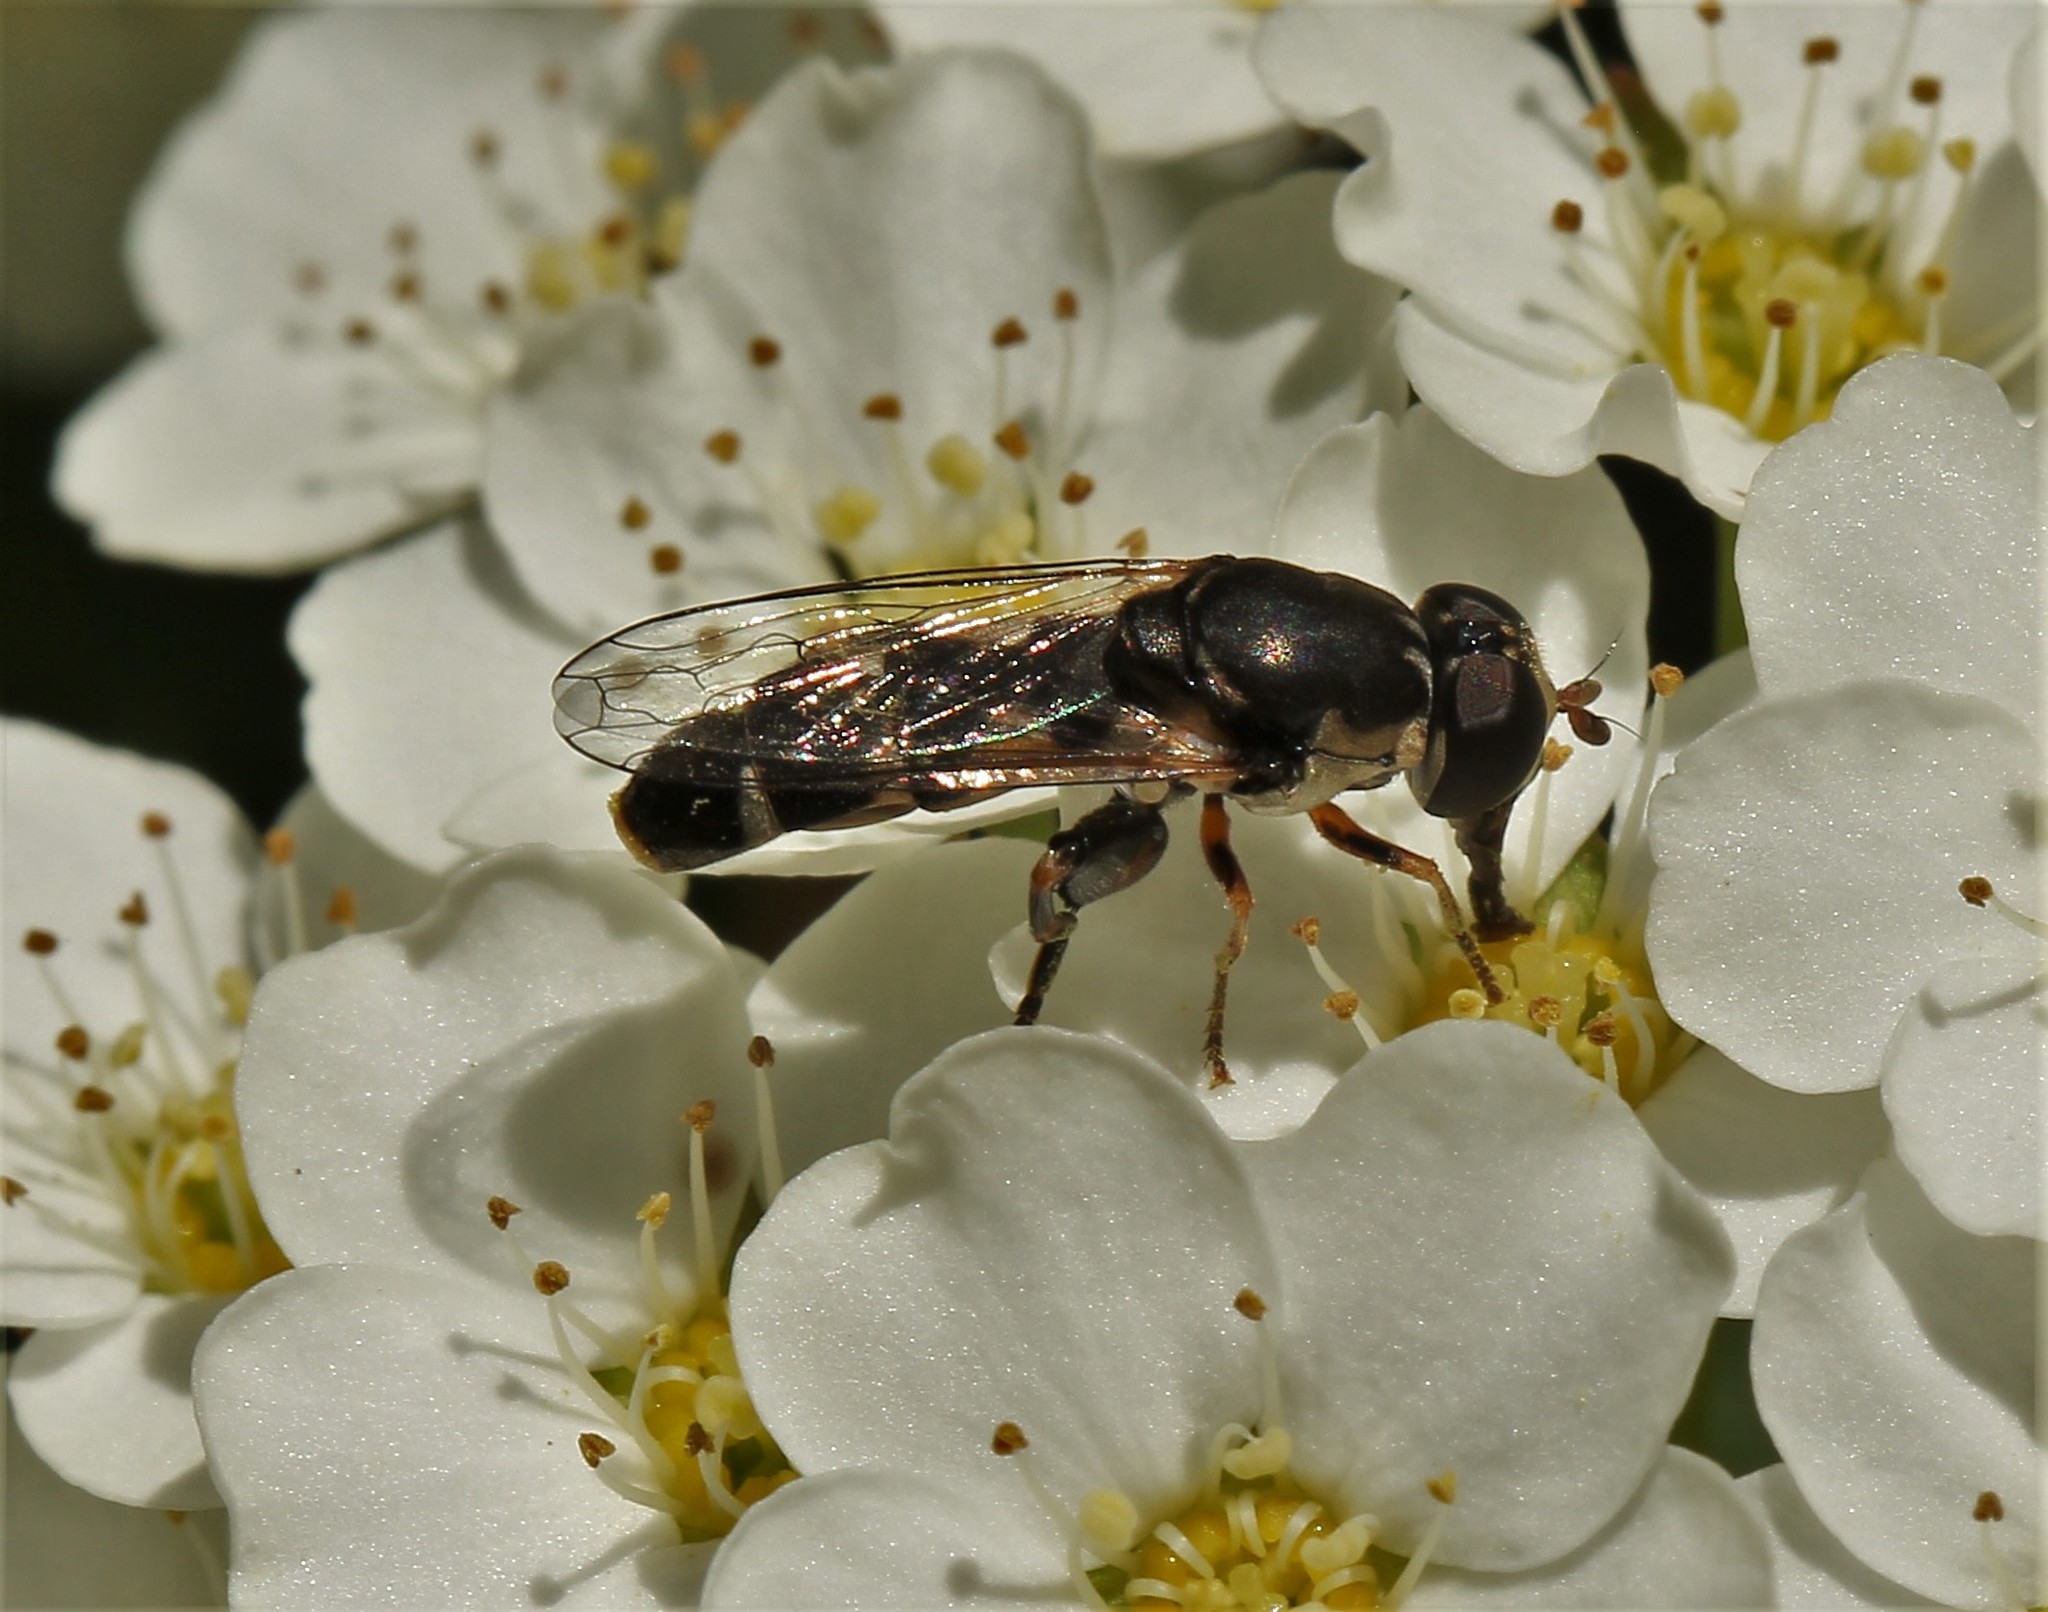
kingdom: Animalia
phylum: Arthropoda
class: Insecta
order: Diptera
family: Syrphidae
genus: Syritta
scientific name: Syritta pipiens
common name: Hover fly
